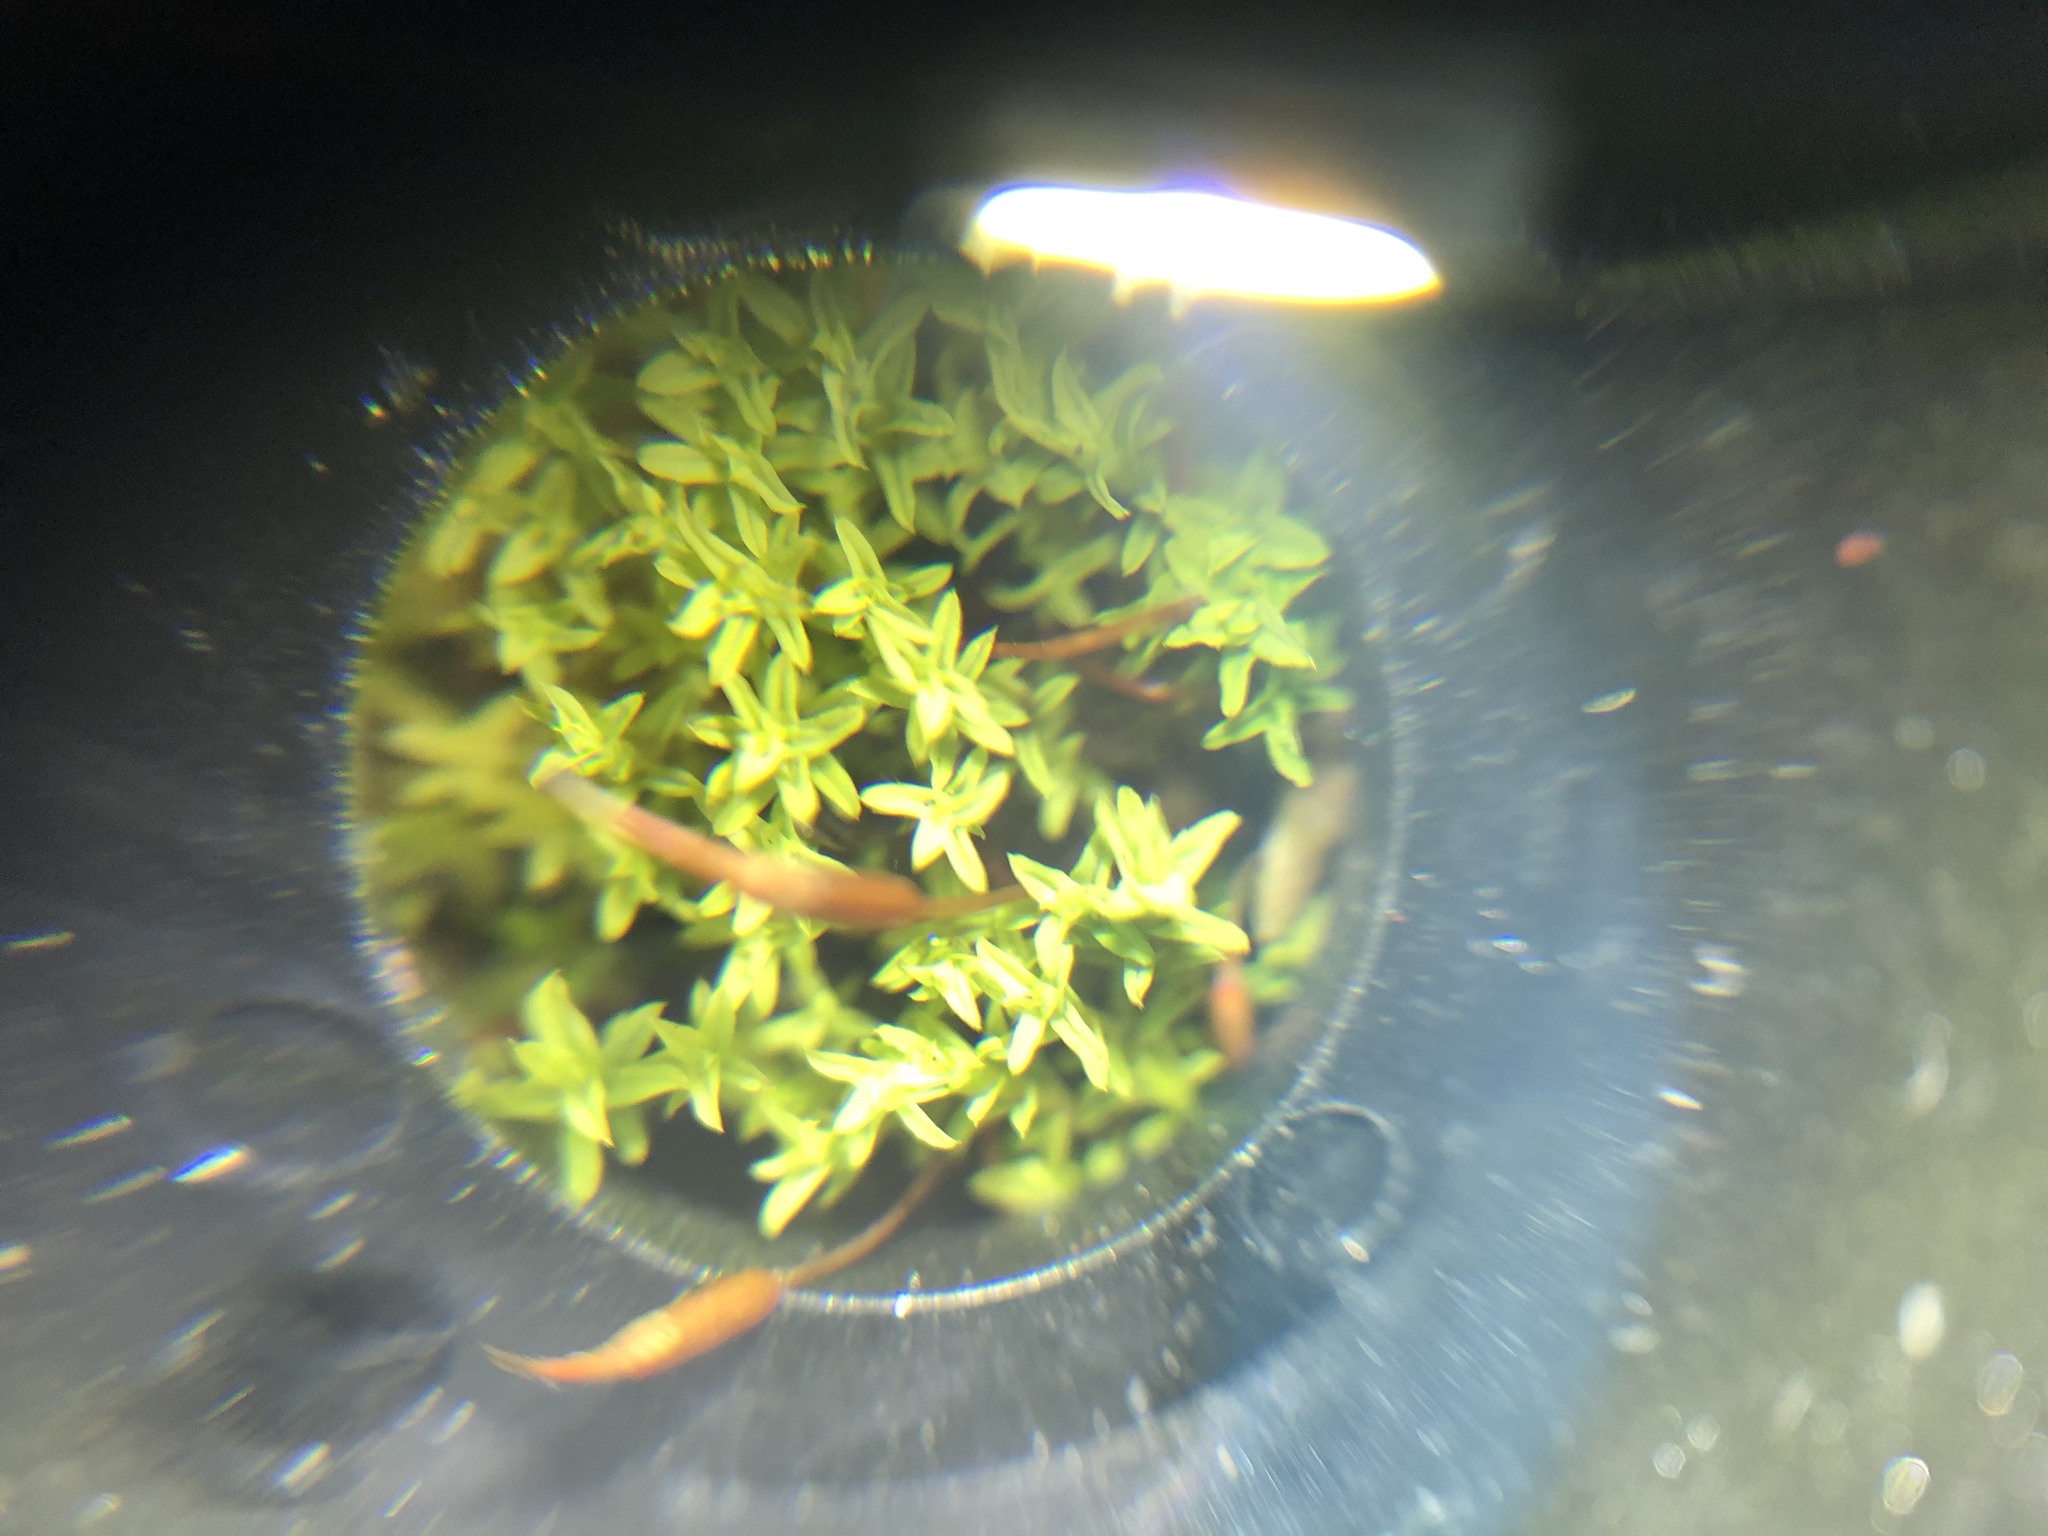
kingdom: Plantae
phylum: Bryophyta
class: Bryopsida
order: Pottiales
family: Pottiaceae
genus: Barbula
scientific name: Barbula unguiculata
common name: Prickly beard moss
